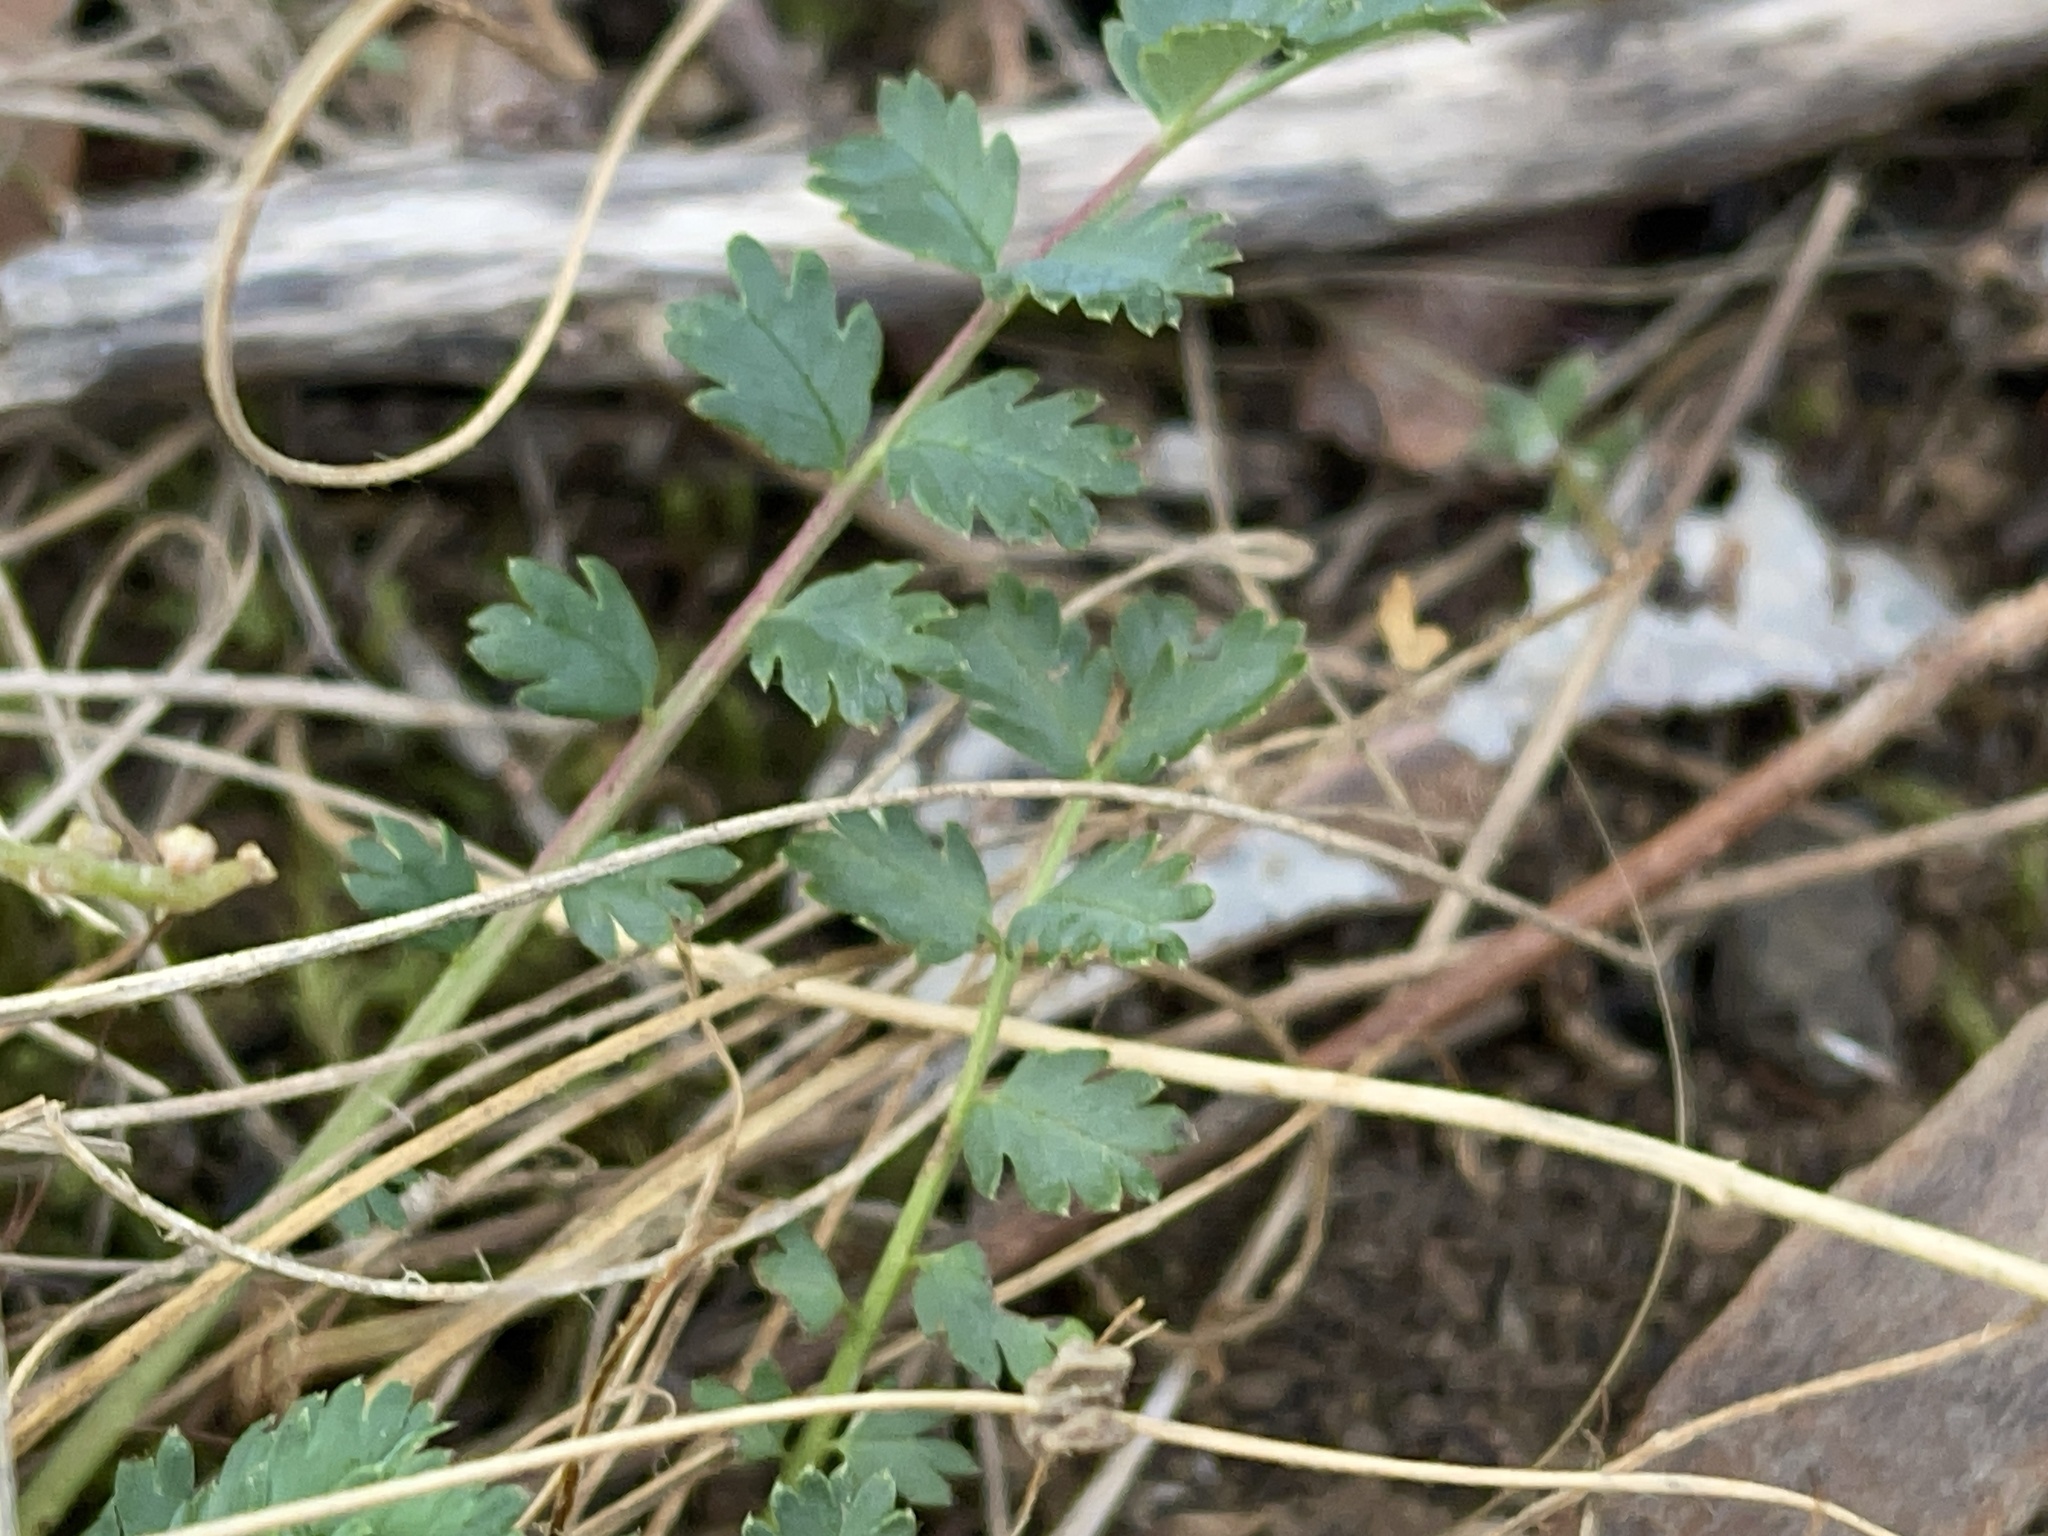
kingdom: Plantae
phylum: Tracheophyta
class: Magnoliopsida
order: Rosales
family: Rosaceae
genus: Acaena
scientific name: Acaena echinata
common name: Sheepbur
